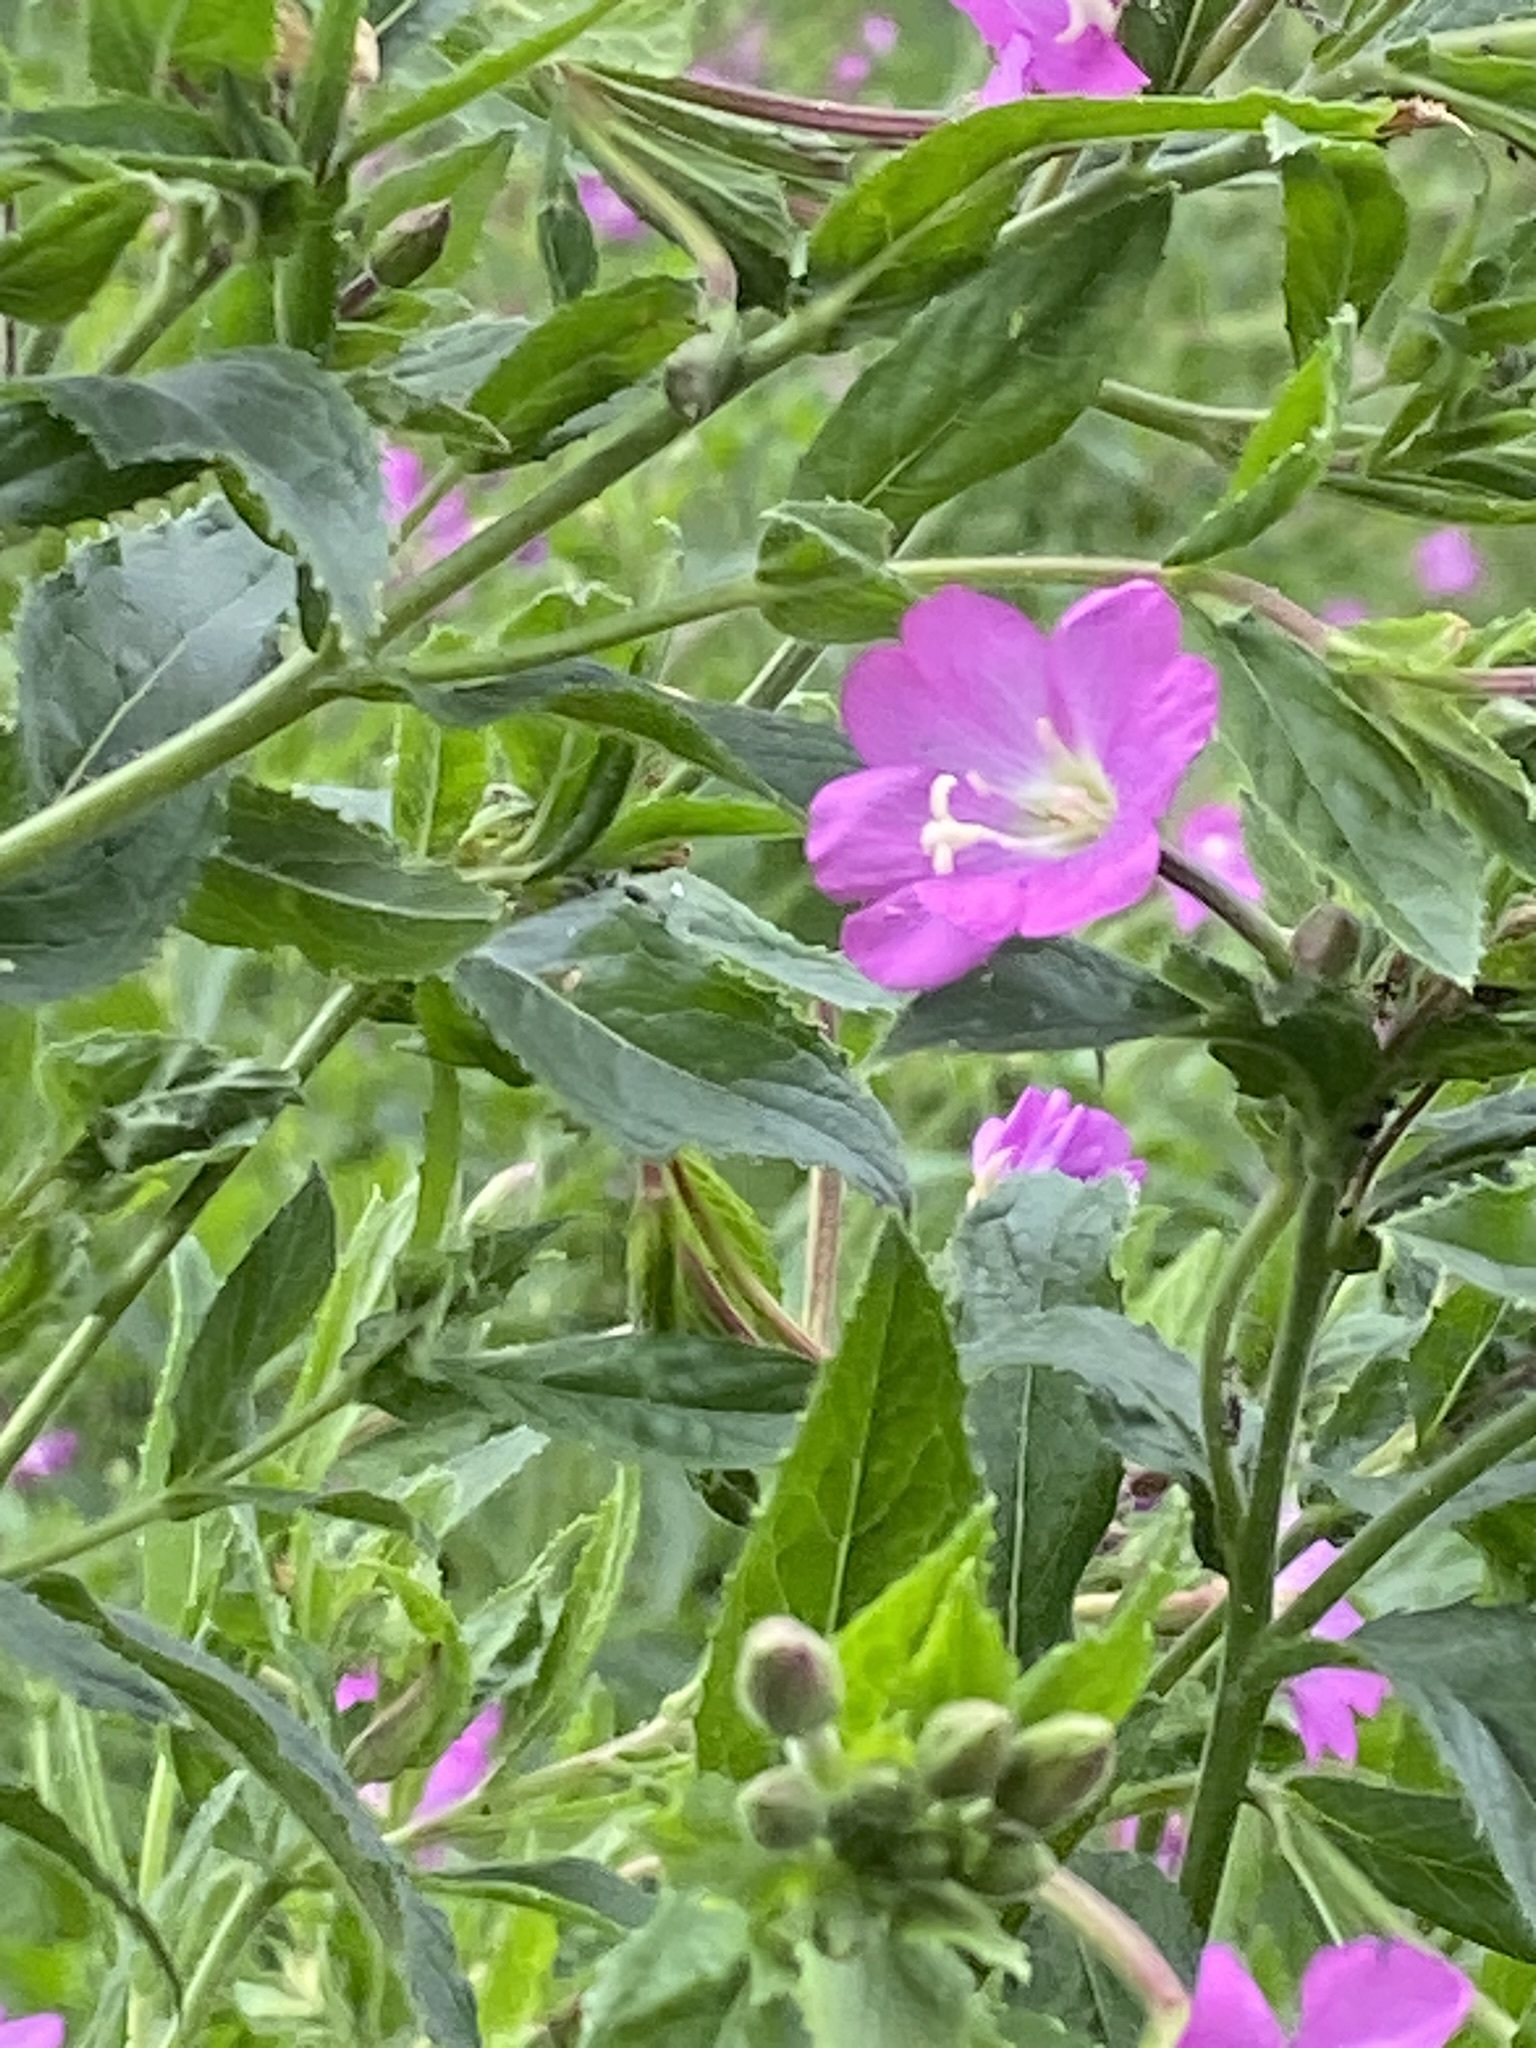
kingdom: Plantae
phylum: Tracheophyta
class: Magnoliopsida
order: Myrtales
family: Onagraceae
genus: Epilobium
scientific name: Epilobium hirsutum
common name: Great willowherb
